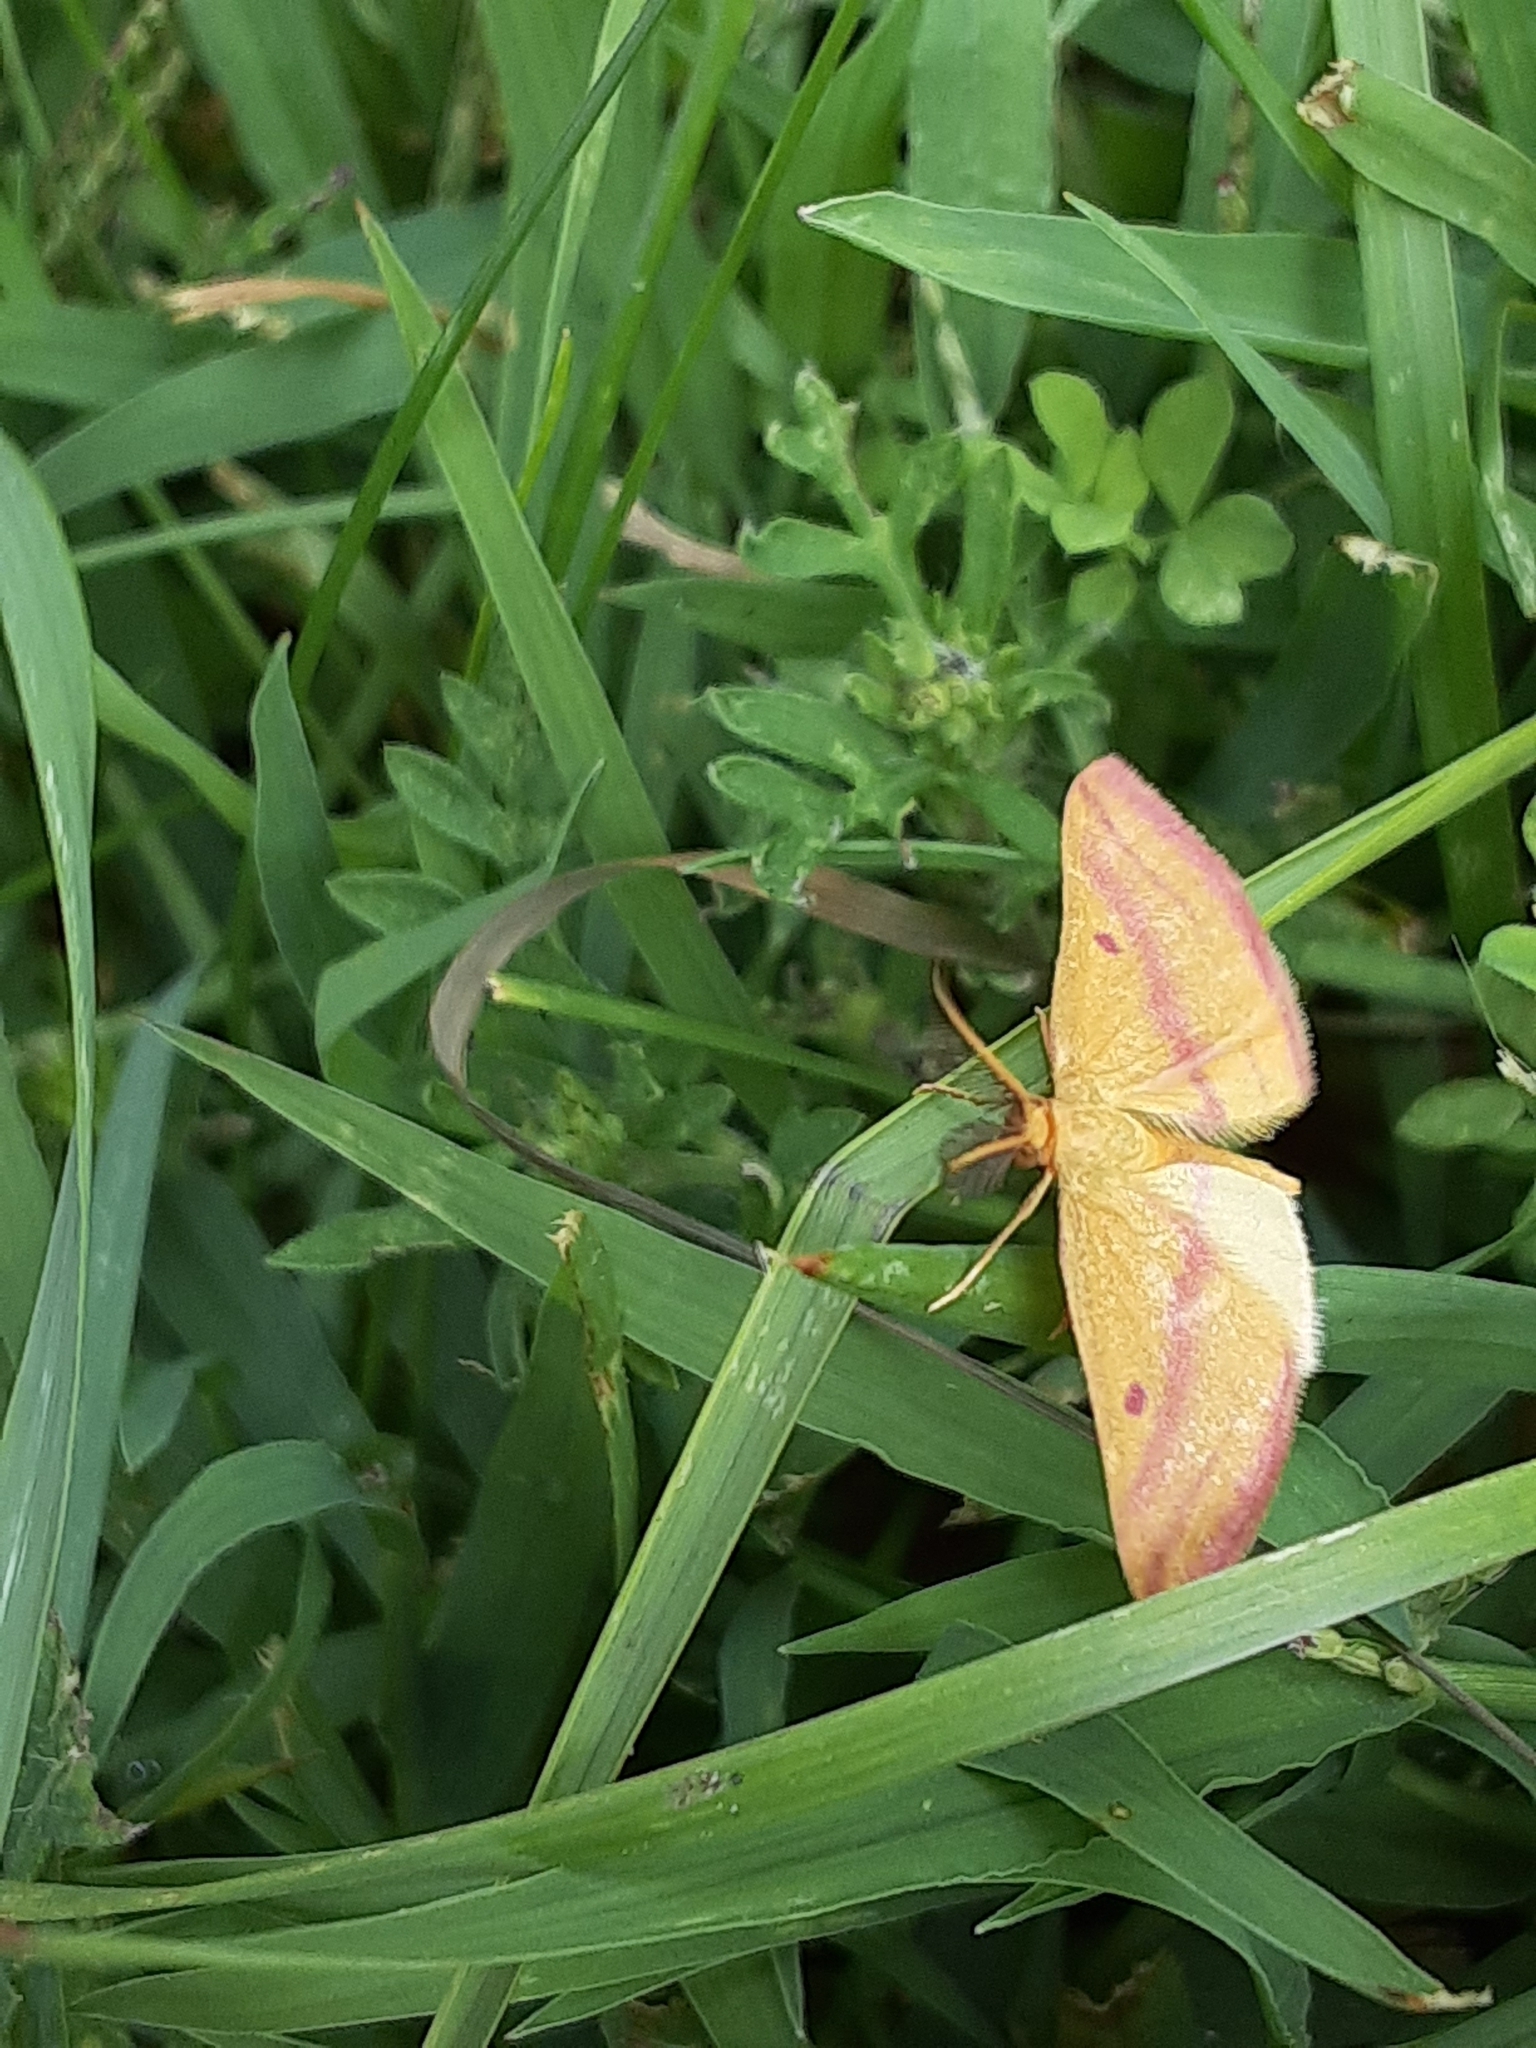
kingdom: Animalia
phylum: Arthropoda
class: Insecta
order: Lepidoptera
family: Geometridae
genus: Haematopis
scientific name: Haematopis grataria
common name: Chickweed geometer
